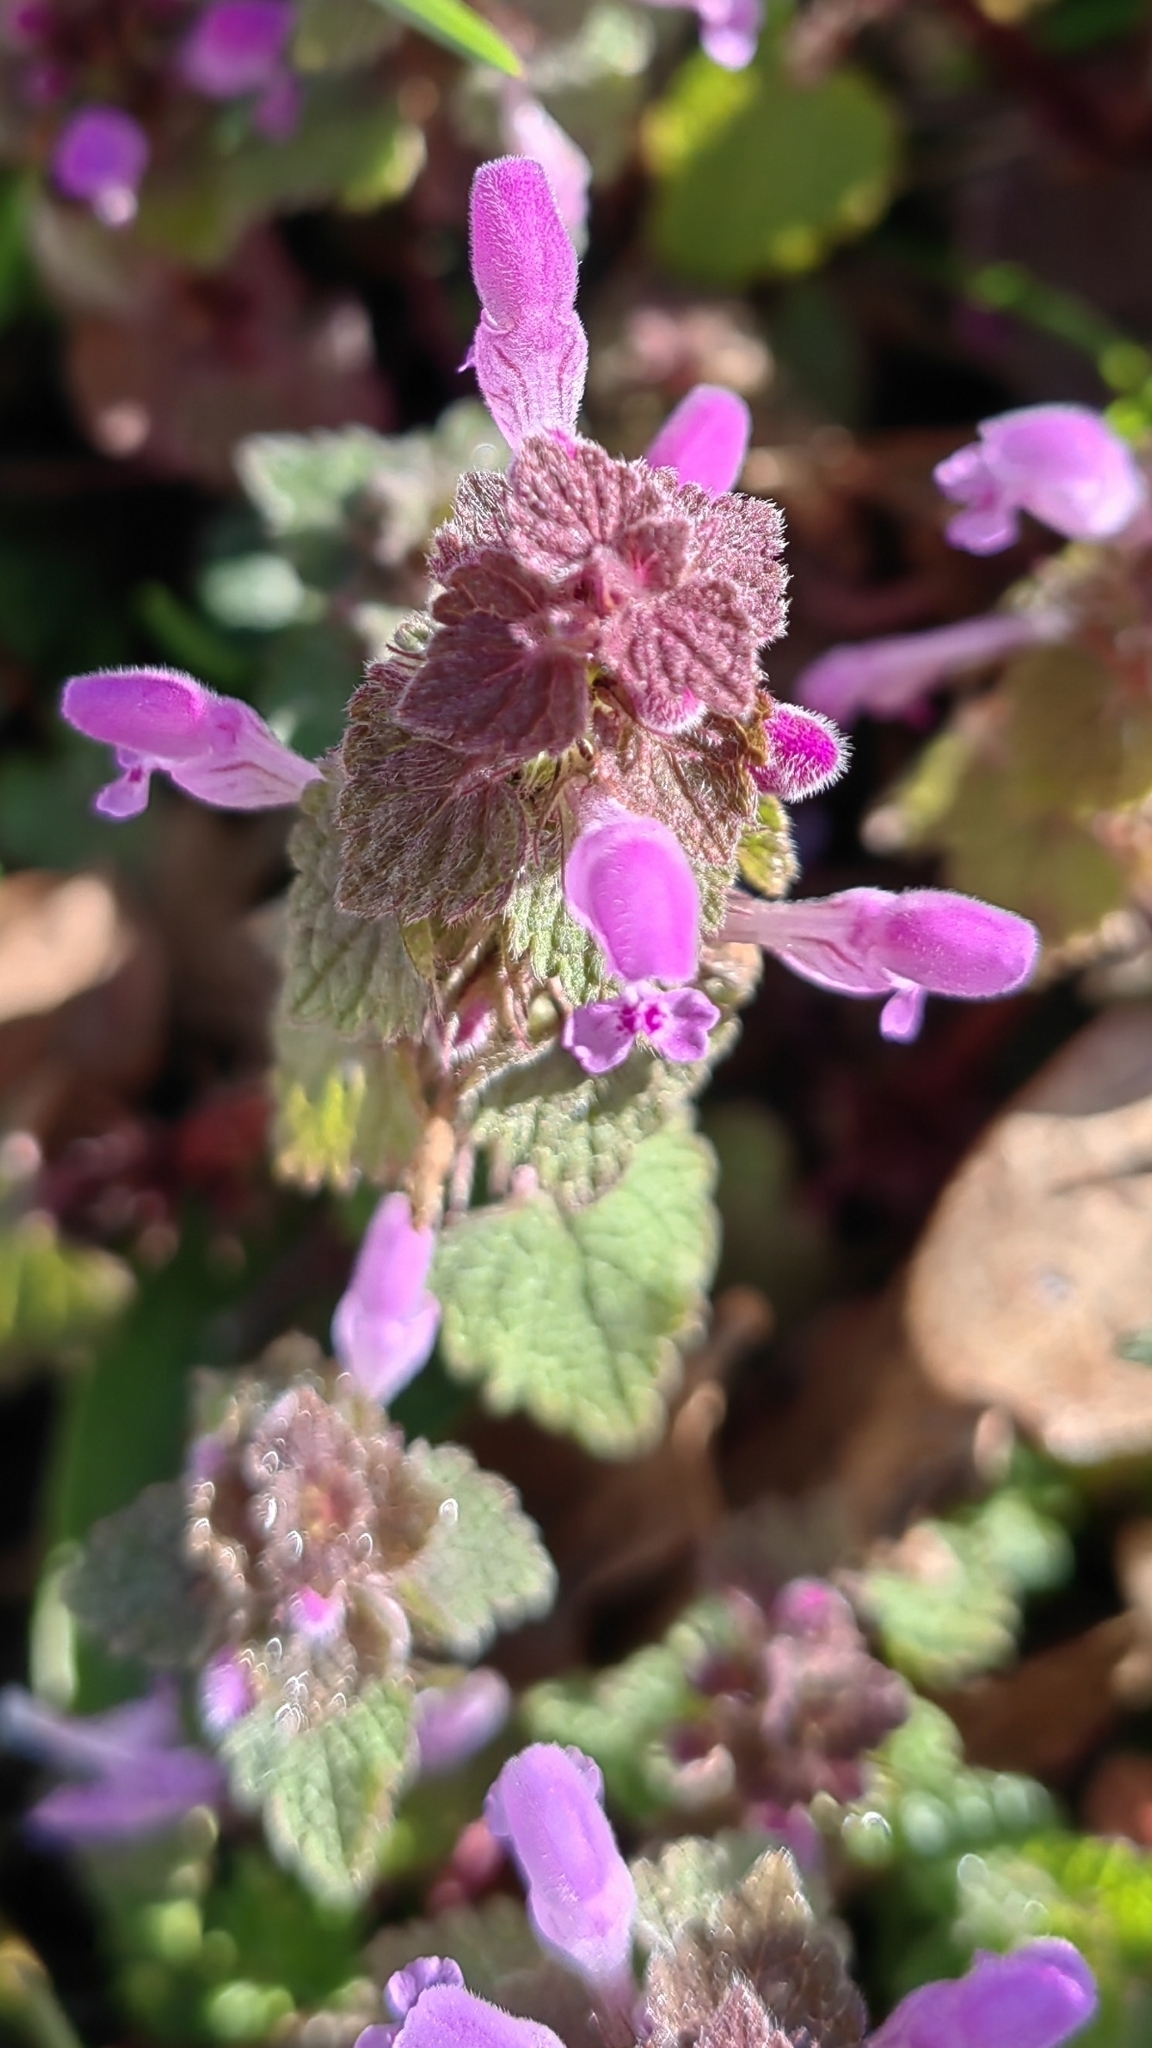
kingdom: Plantae
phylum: Tracheophyta
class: Magnoliopsida
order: Lamiales
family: Lamiaceae
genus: Lamium
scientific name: Lamium purpureum
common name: Red dead-nettle
